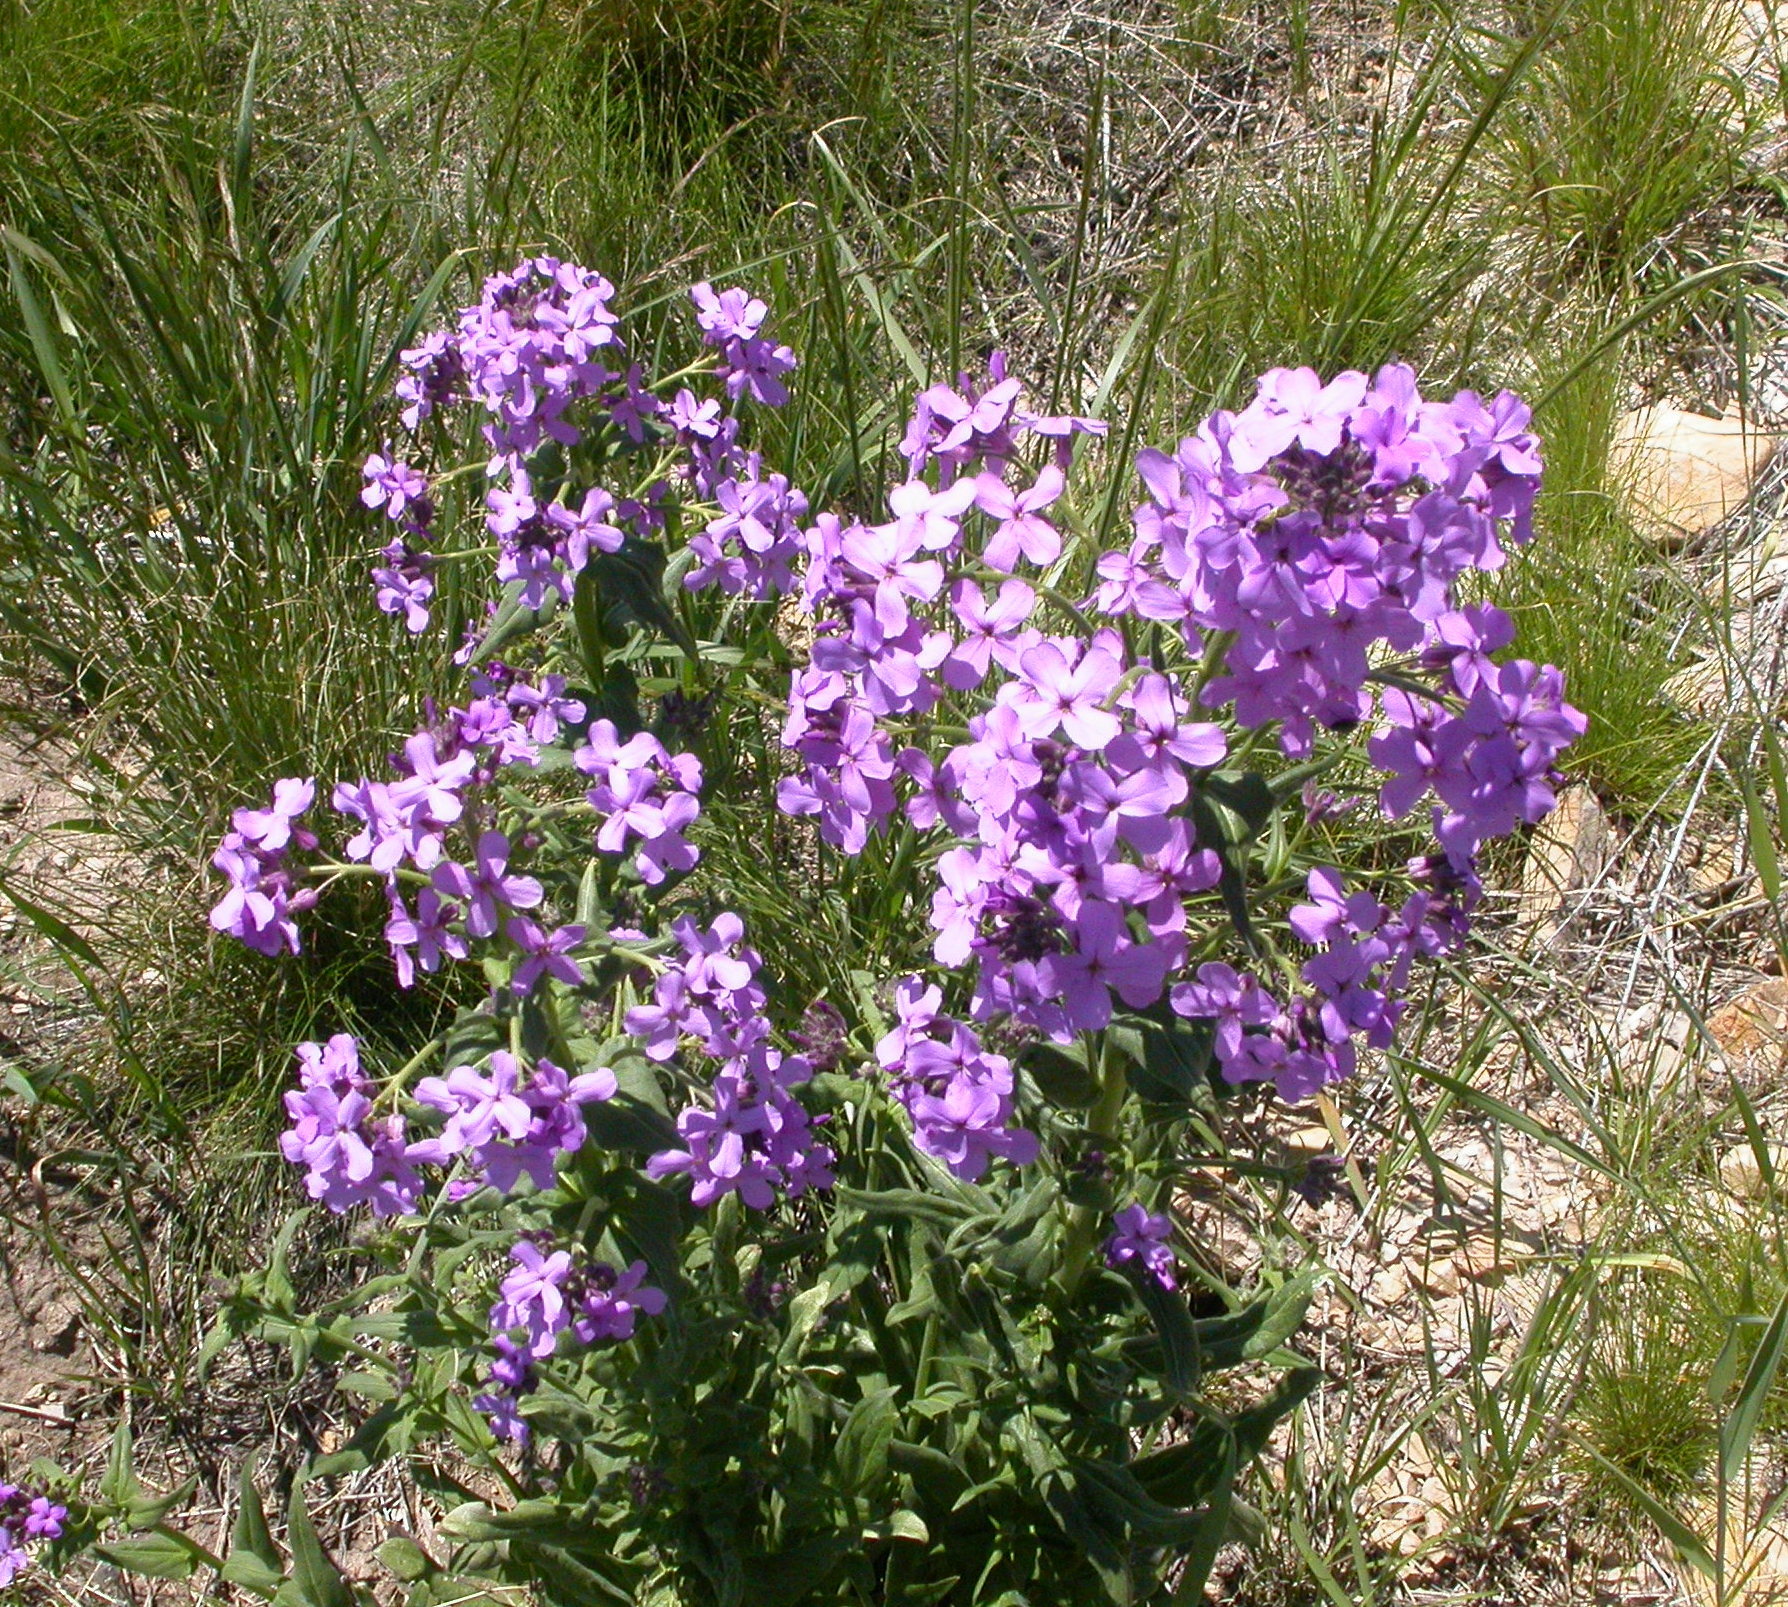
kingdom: Plantae
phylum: Tracheophyta
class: Magnoliopsida
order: Brassicales
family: Brassicaceae
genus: Hesperis
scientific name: Hesperis matronalis
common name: Dame's-violet
